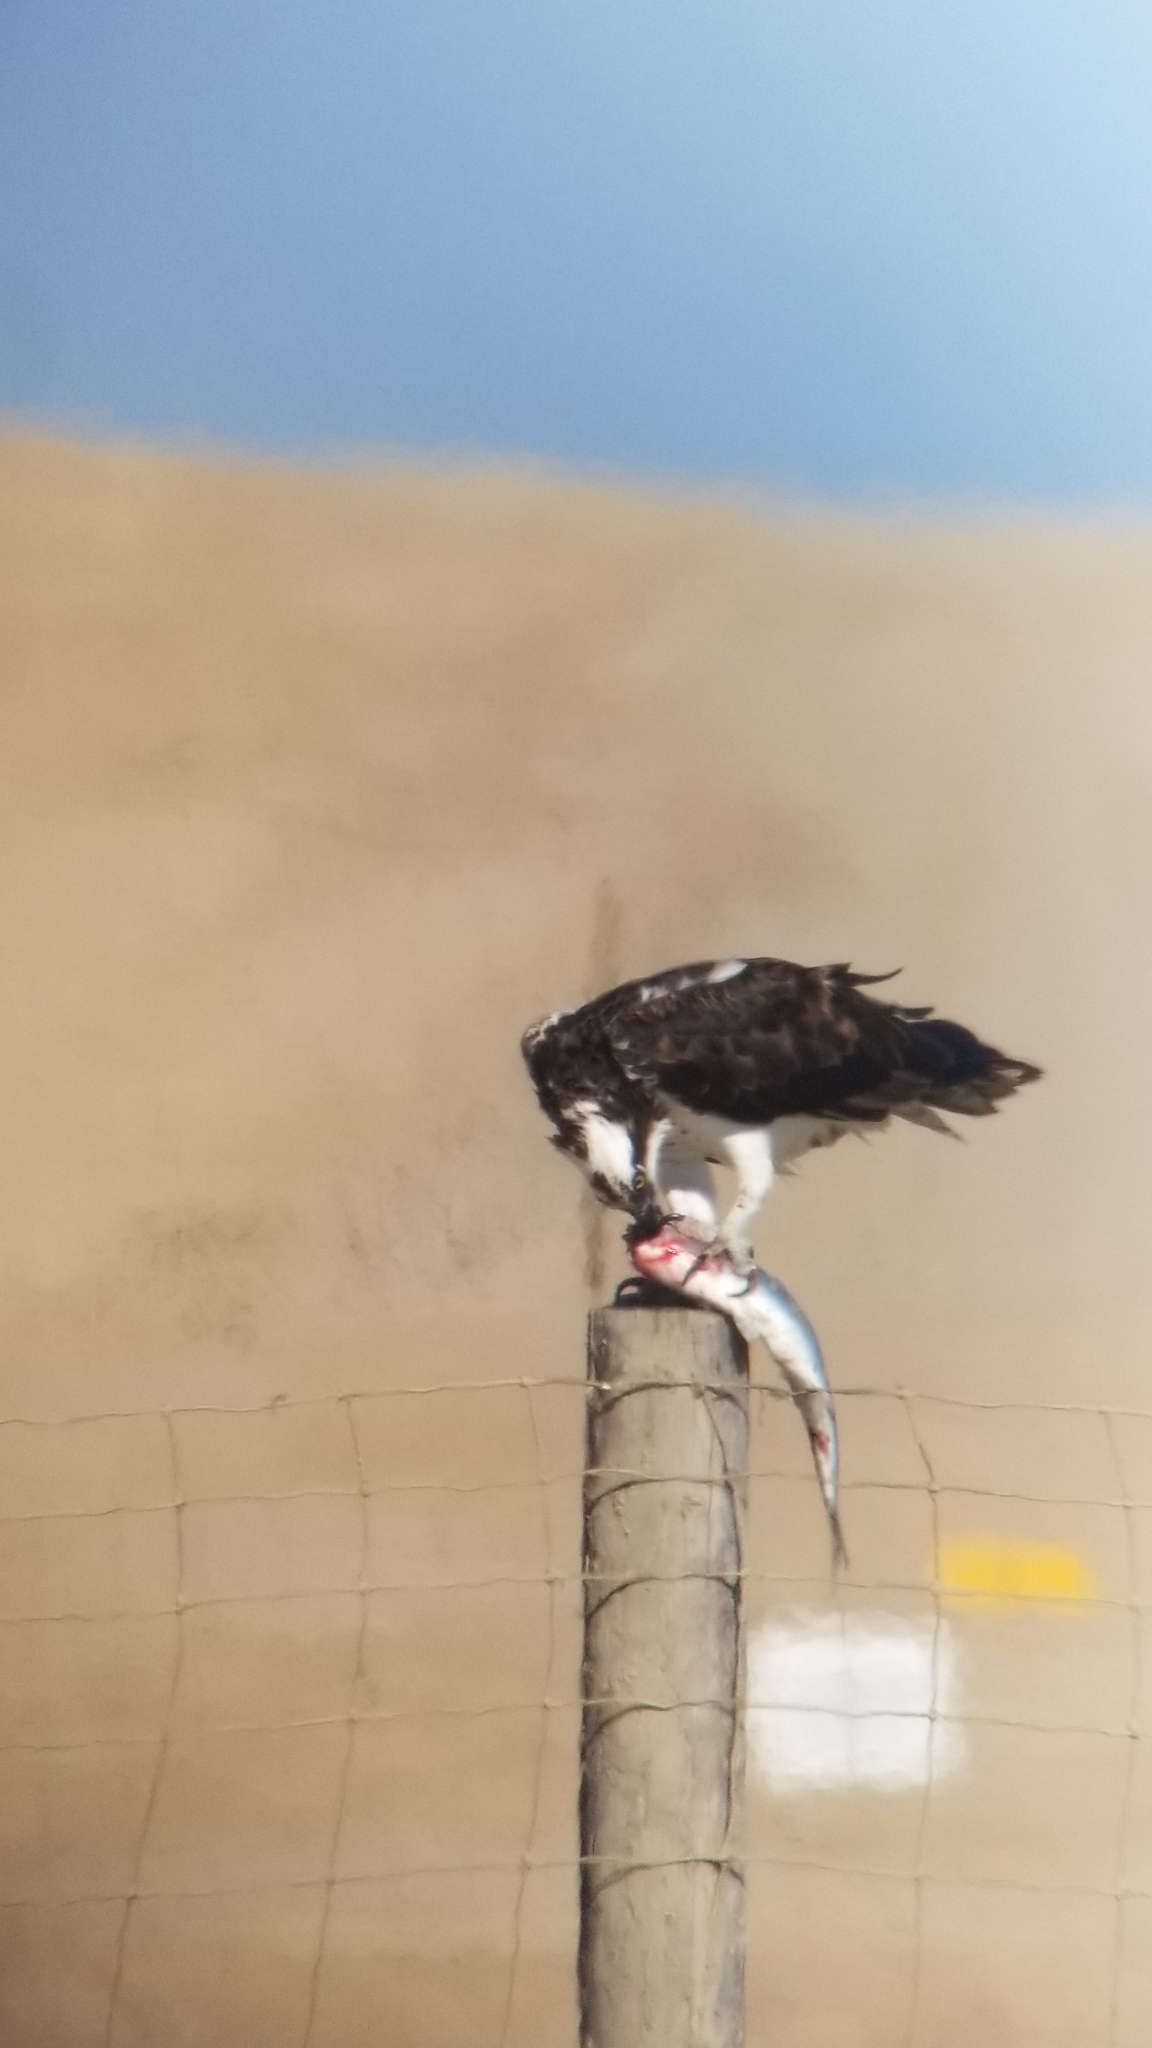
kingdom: Animalia
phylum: Chordata
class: Aves
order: Accipitriformes
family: Pandionidae
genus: Pandion
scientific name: Pandion haliaetus
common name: Osprey
